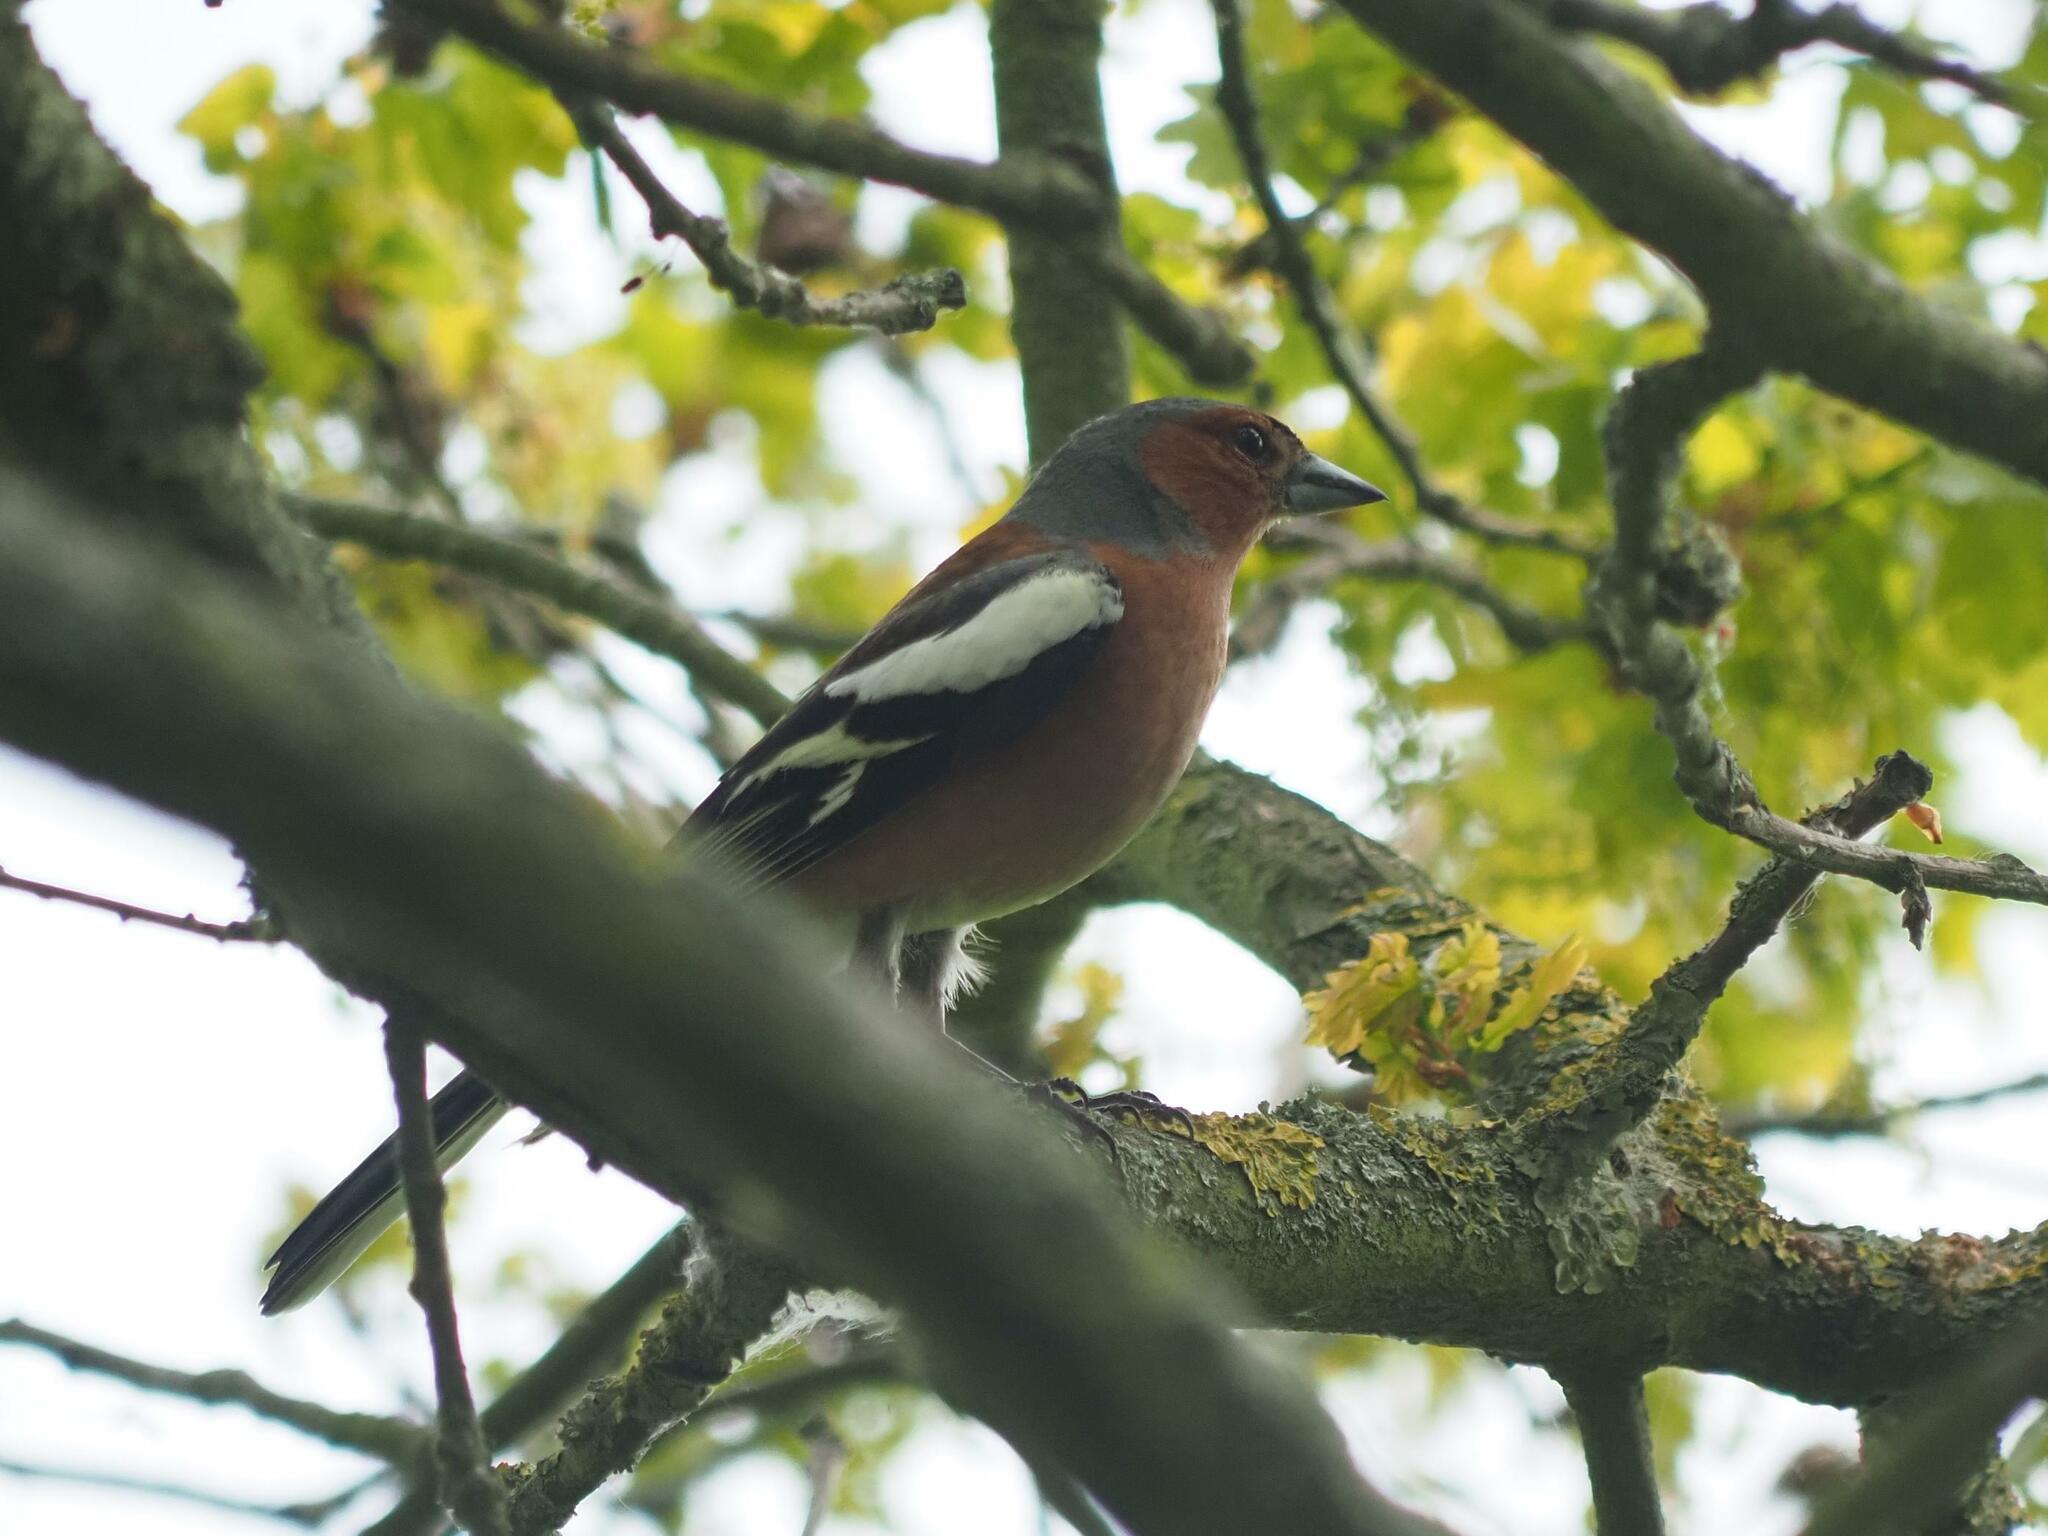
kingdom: Animalia
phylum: Chordata
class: Aves
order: Passeriformes
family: Fringillidae
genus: Fringilla
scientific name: Fringilla coelebs
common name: Common chaffinch
